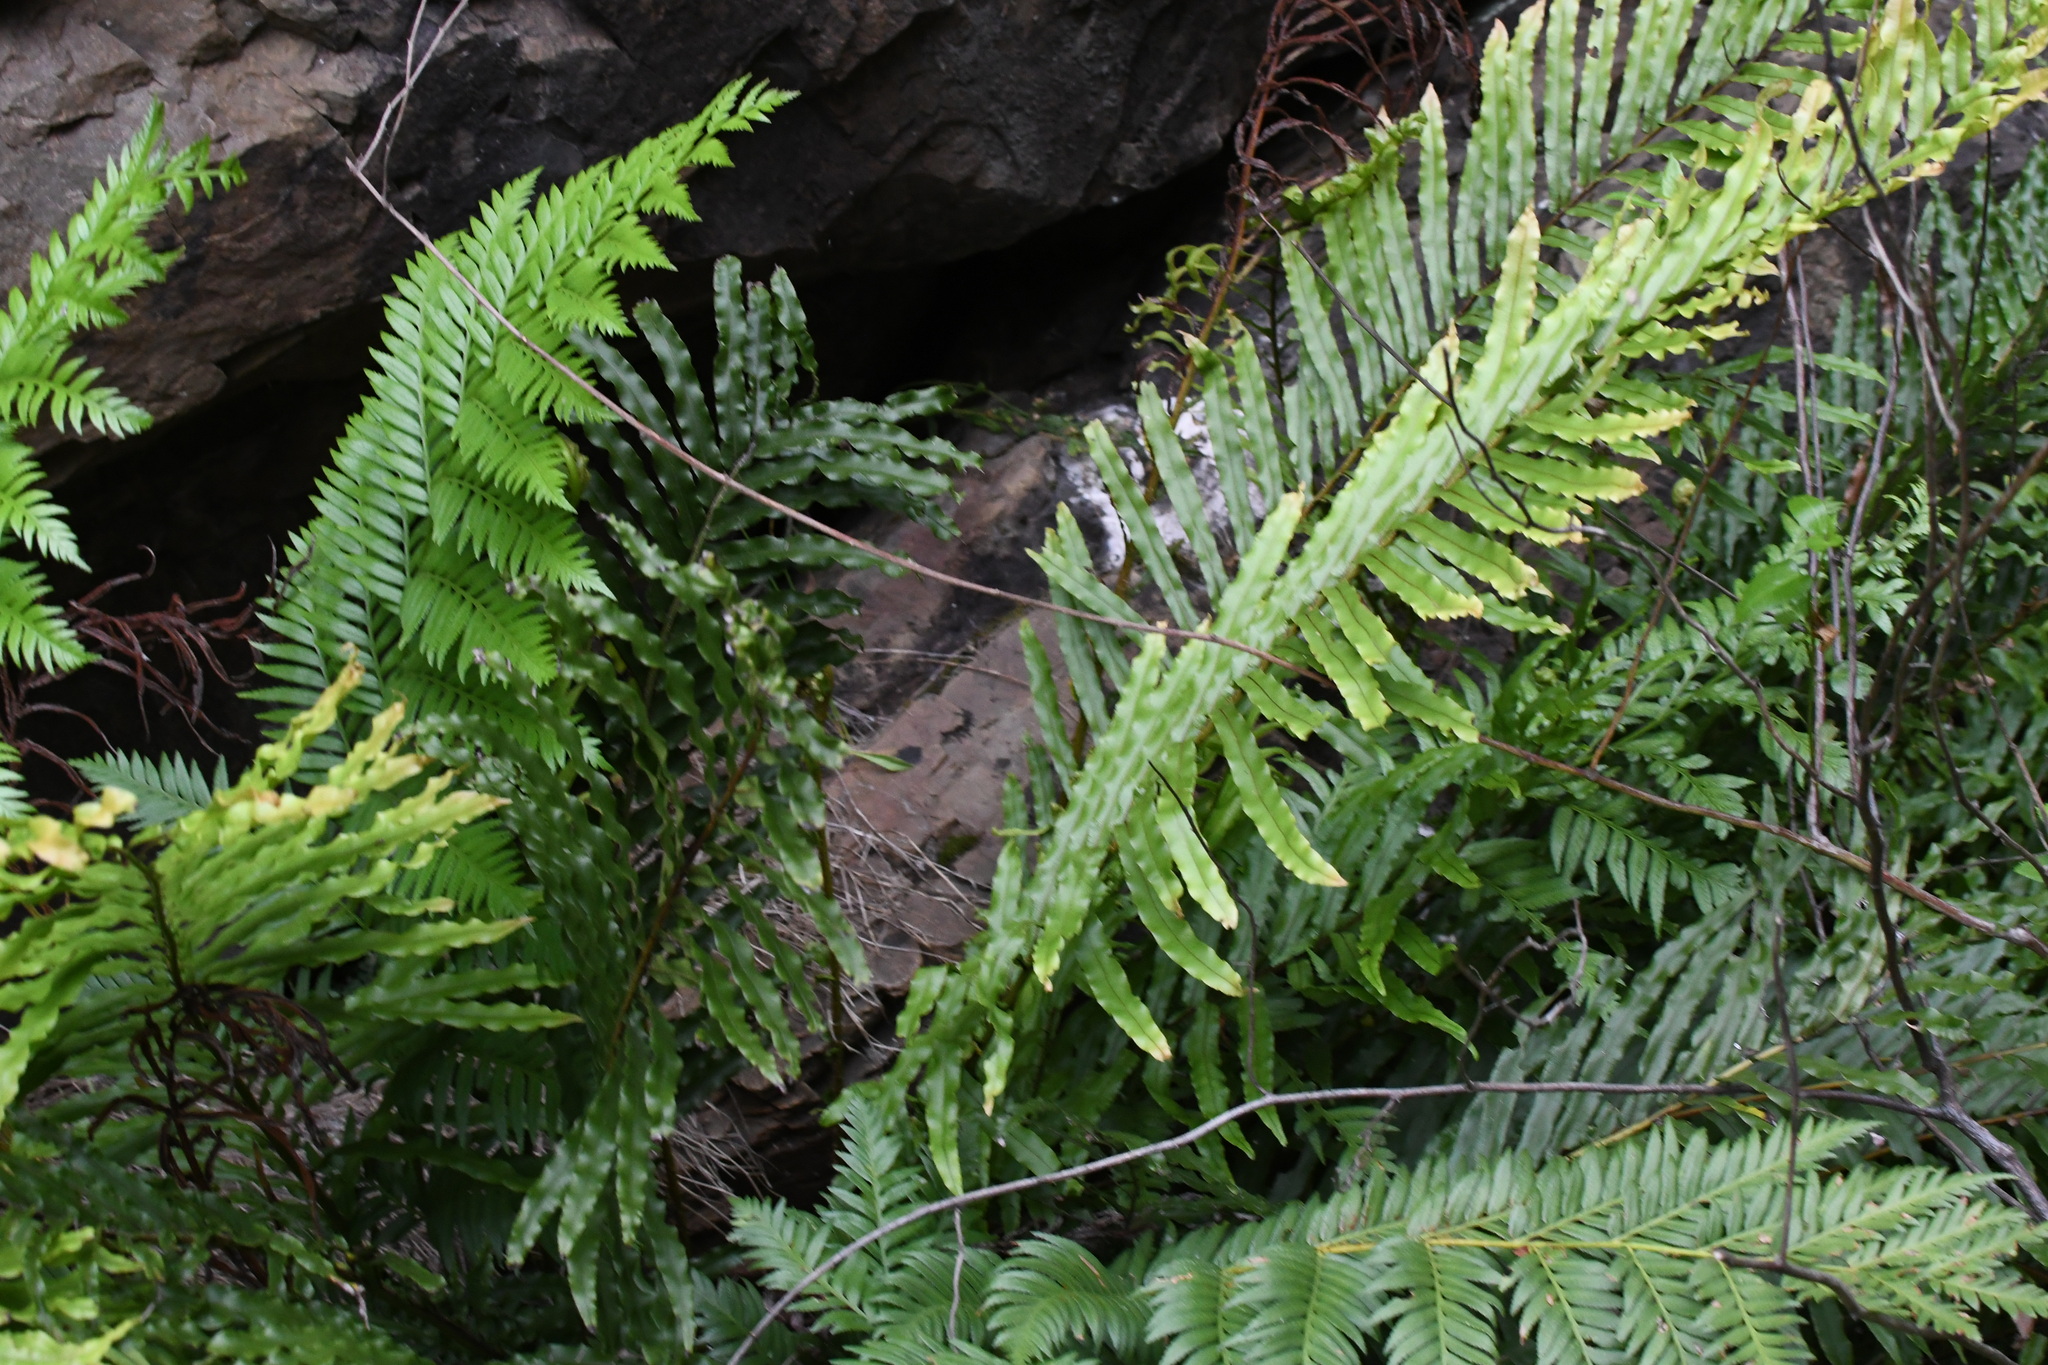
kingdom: Plantae
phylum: Tracheophyta
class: Polypodiopsida
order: Polypodiales
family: Blechnaceae
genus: Parablechnum
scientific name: Parablechnum minus
